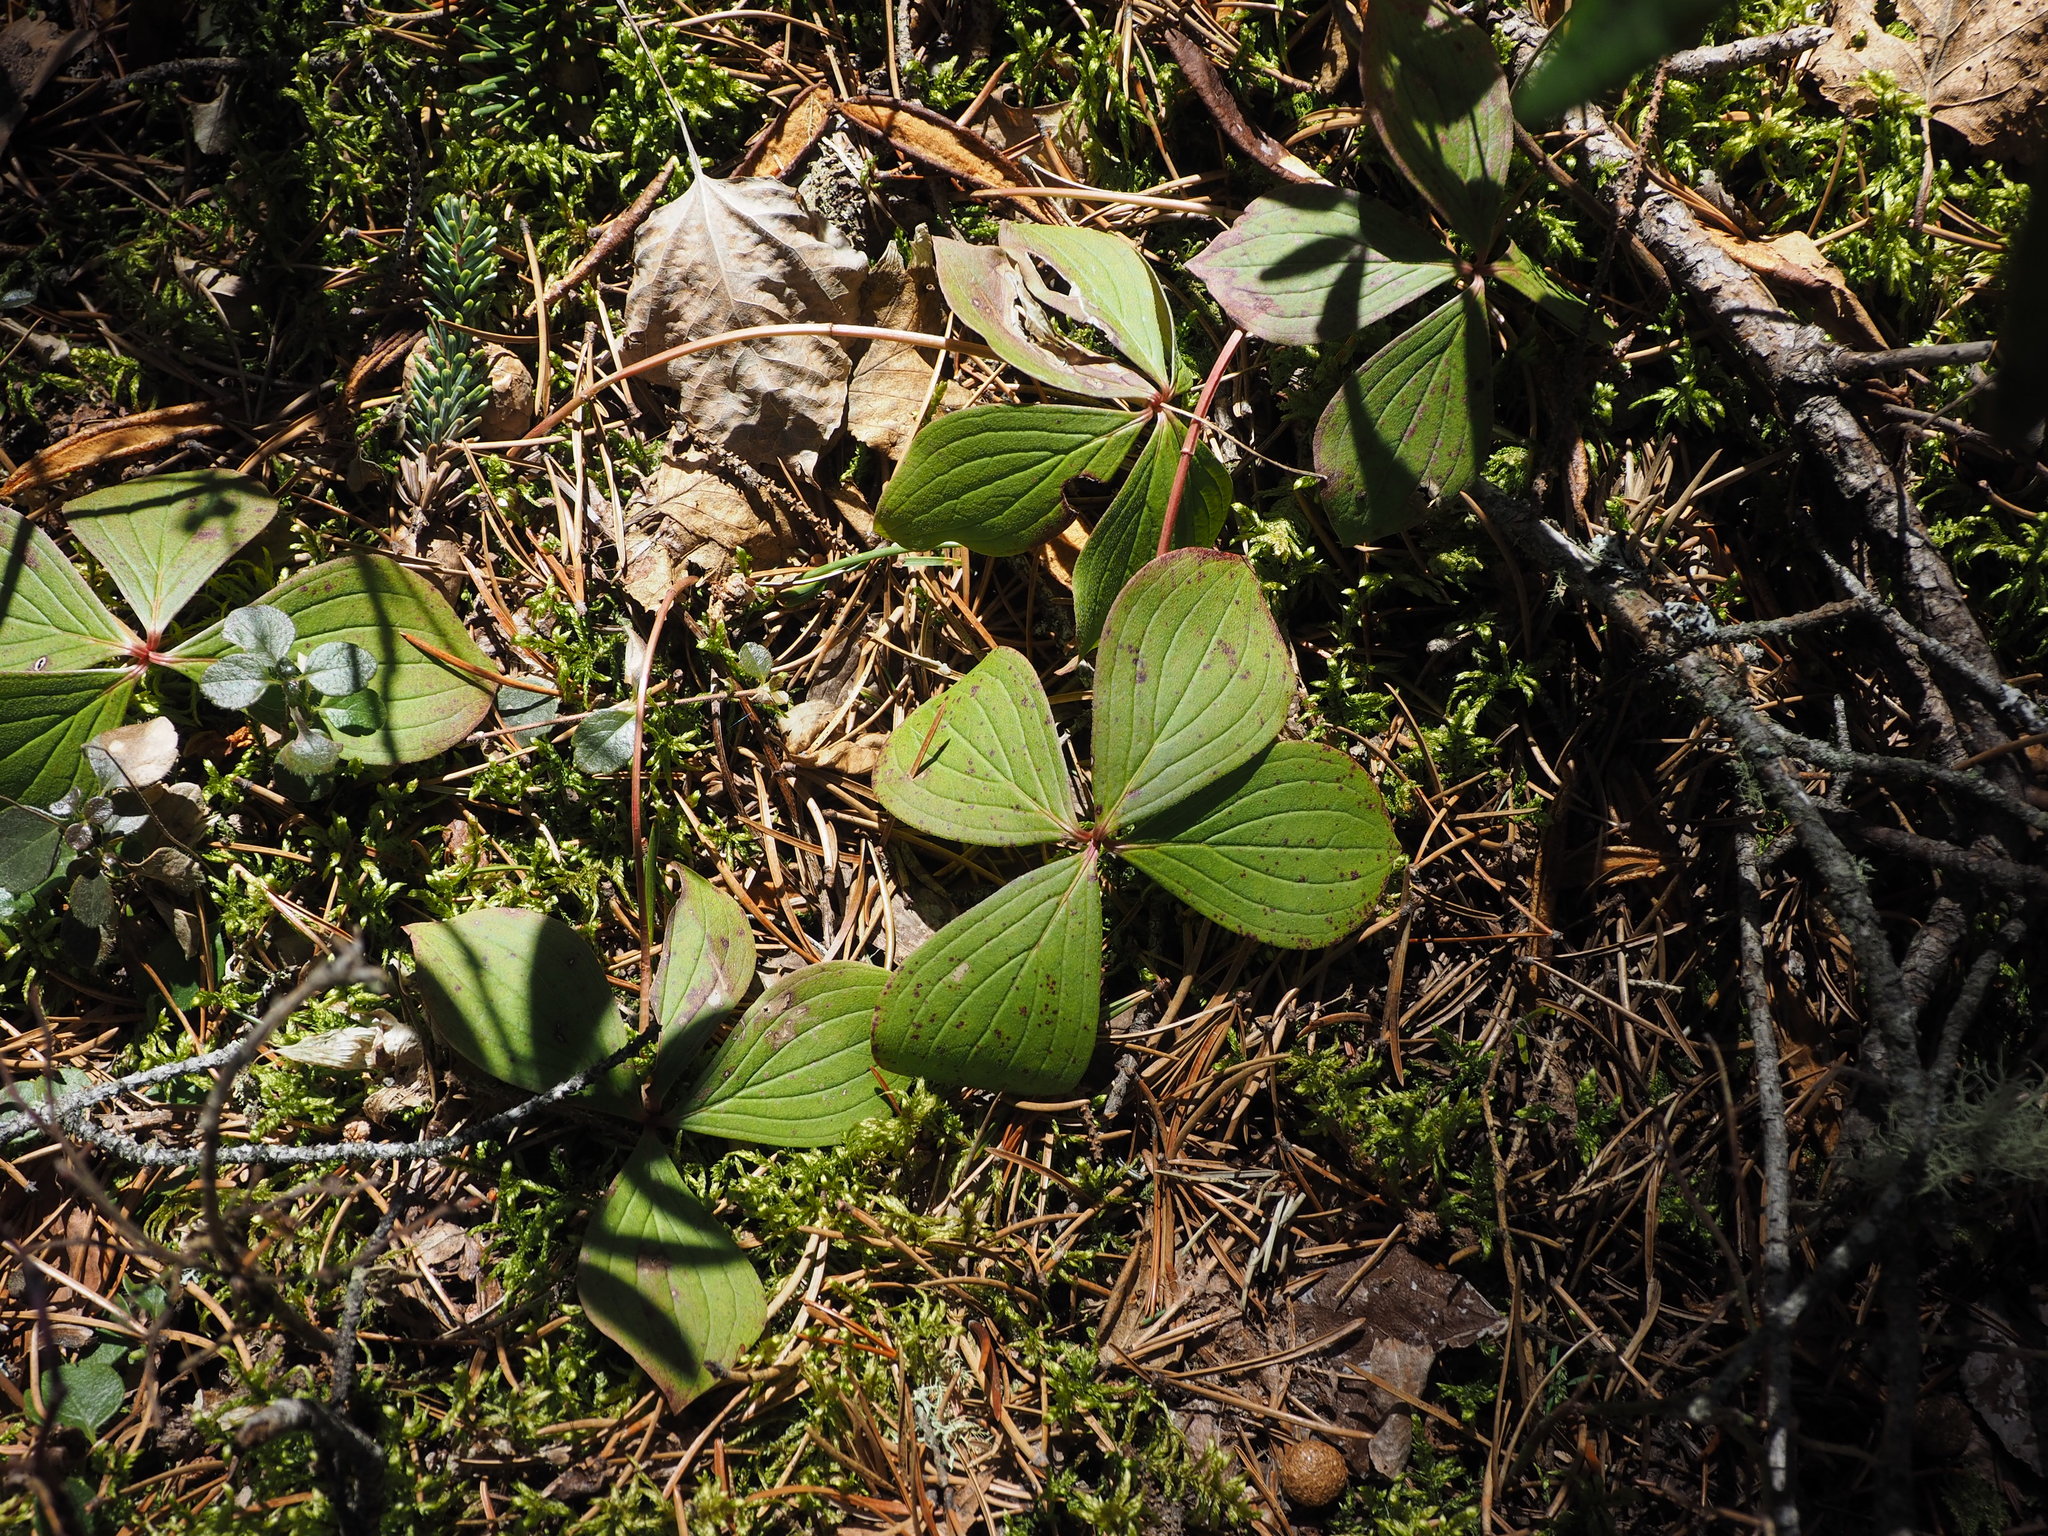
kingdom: Plantae
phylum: Tracheophyta
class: Magnoliopsida
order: Cornales
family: Cornaceae
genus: Cornus
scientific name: Cornus canadensis
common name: Creeping dogwood
